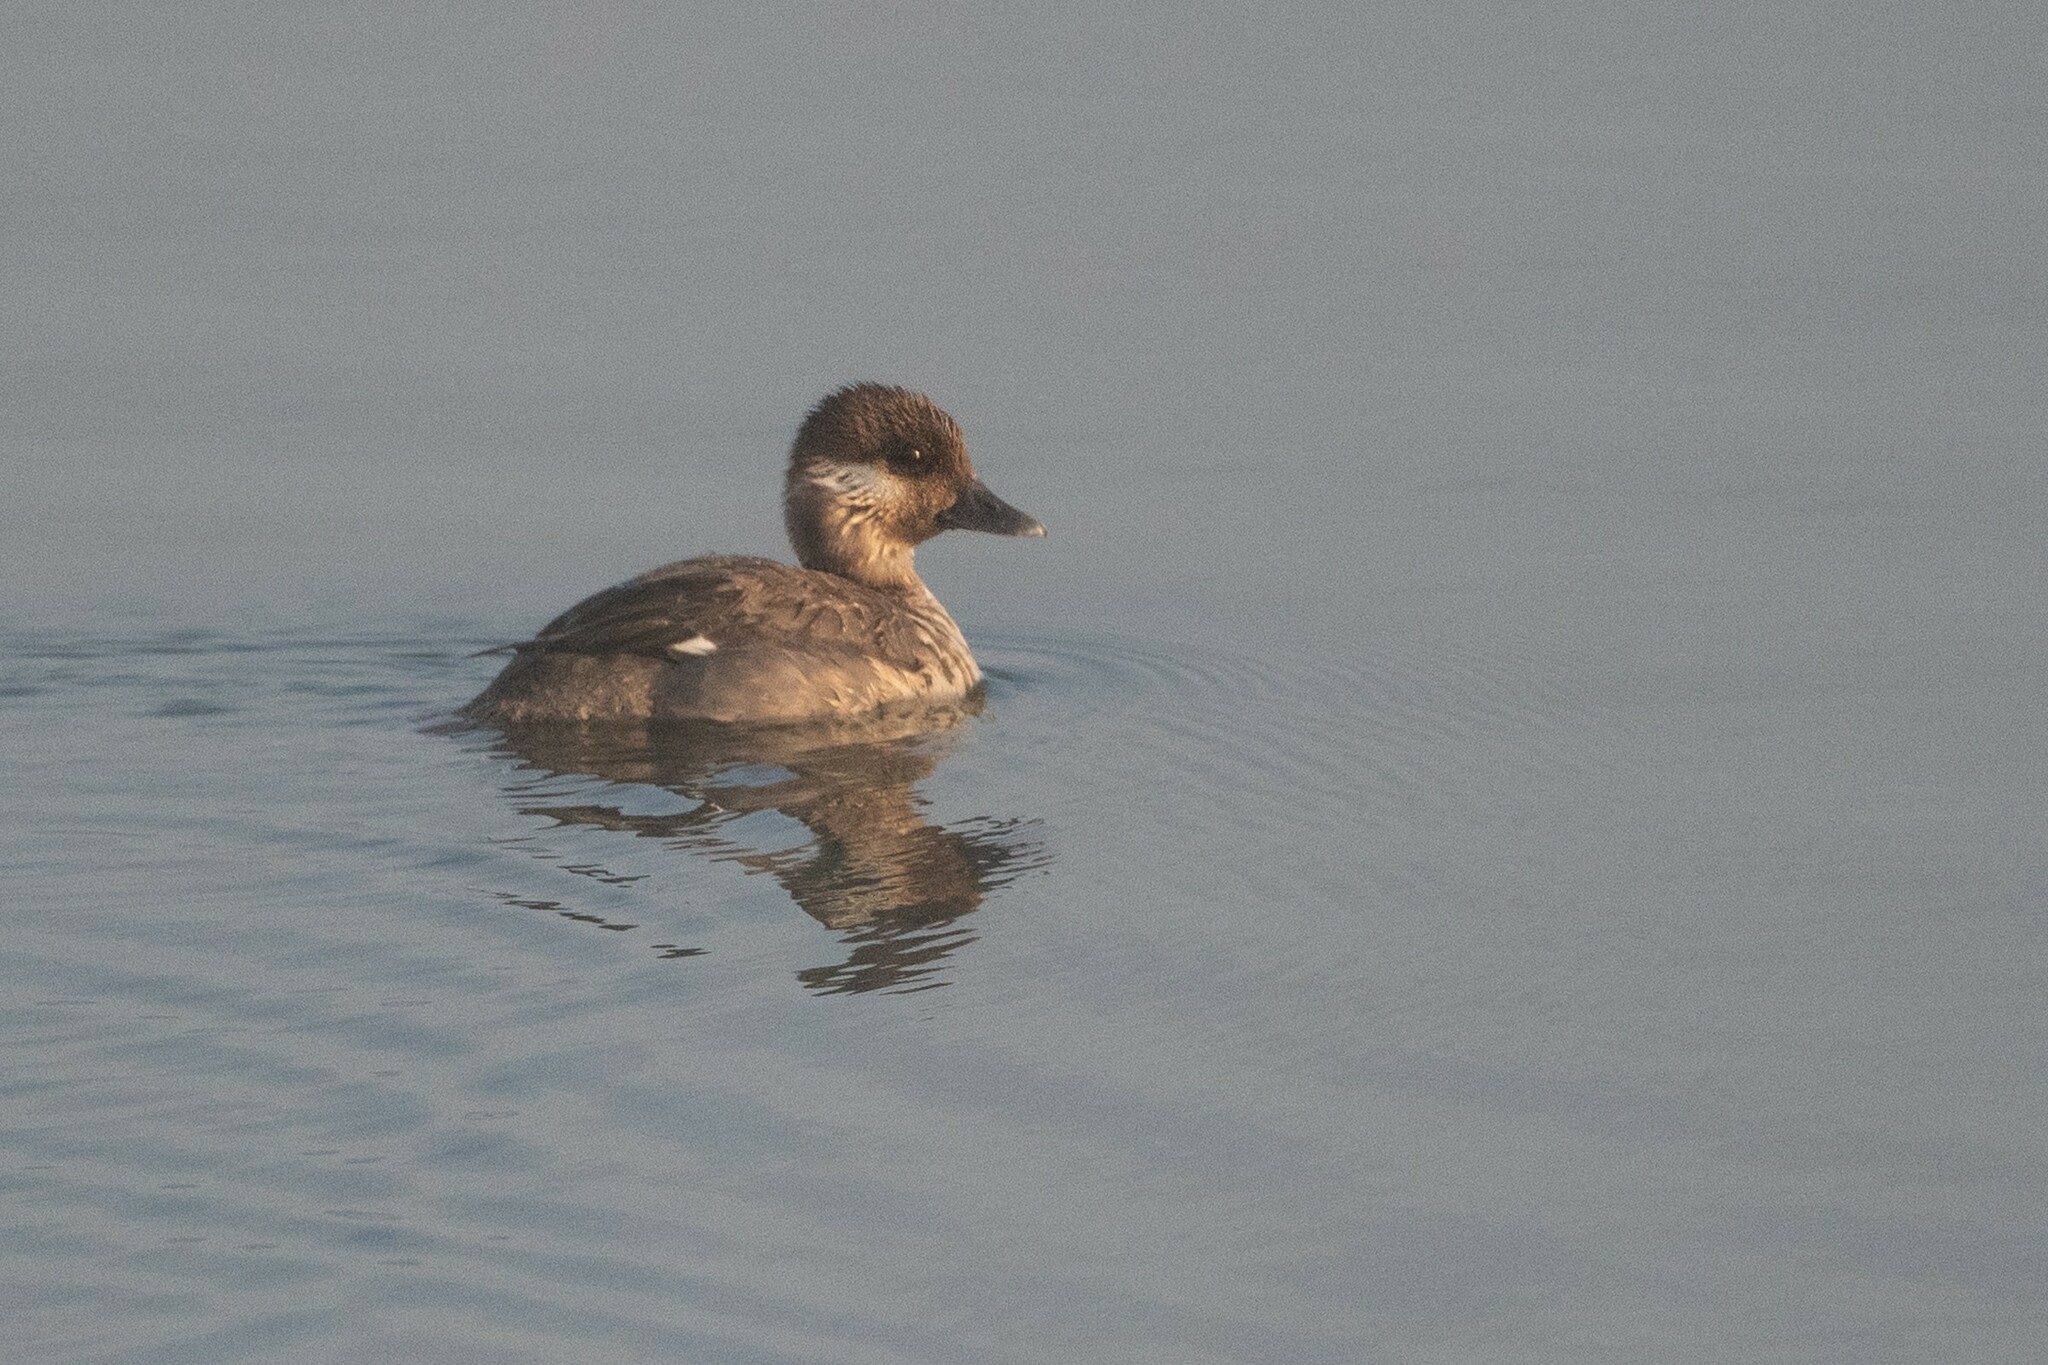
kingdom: Animalia
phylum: Chordata
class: Aves
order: Anseriformes
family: Anatidae
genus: Bucephala
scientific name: Bucephala albeola
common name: Bufflehead
